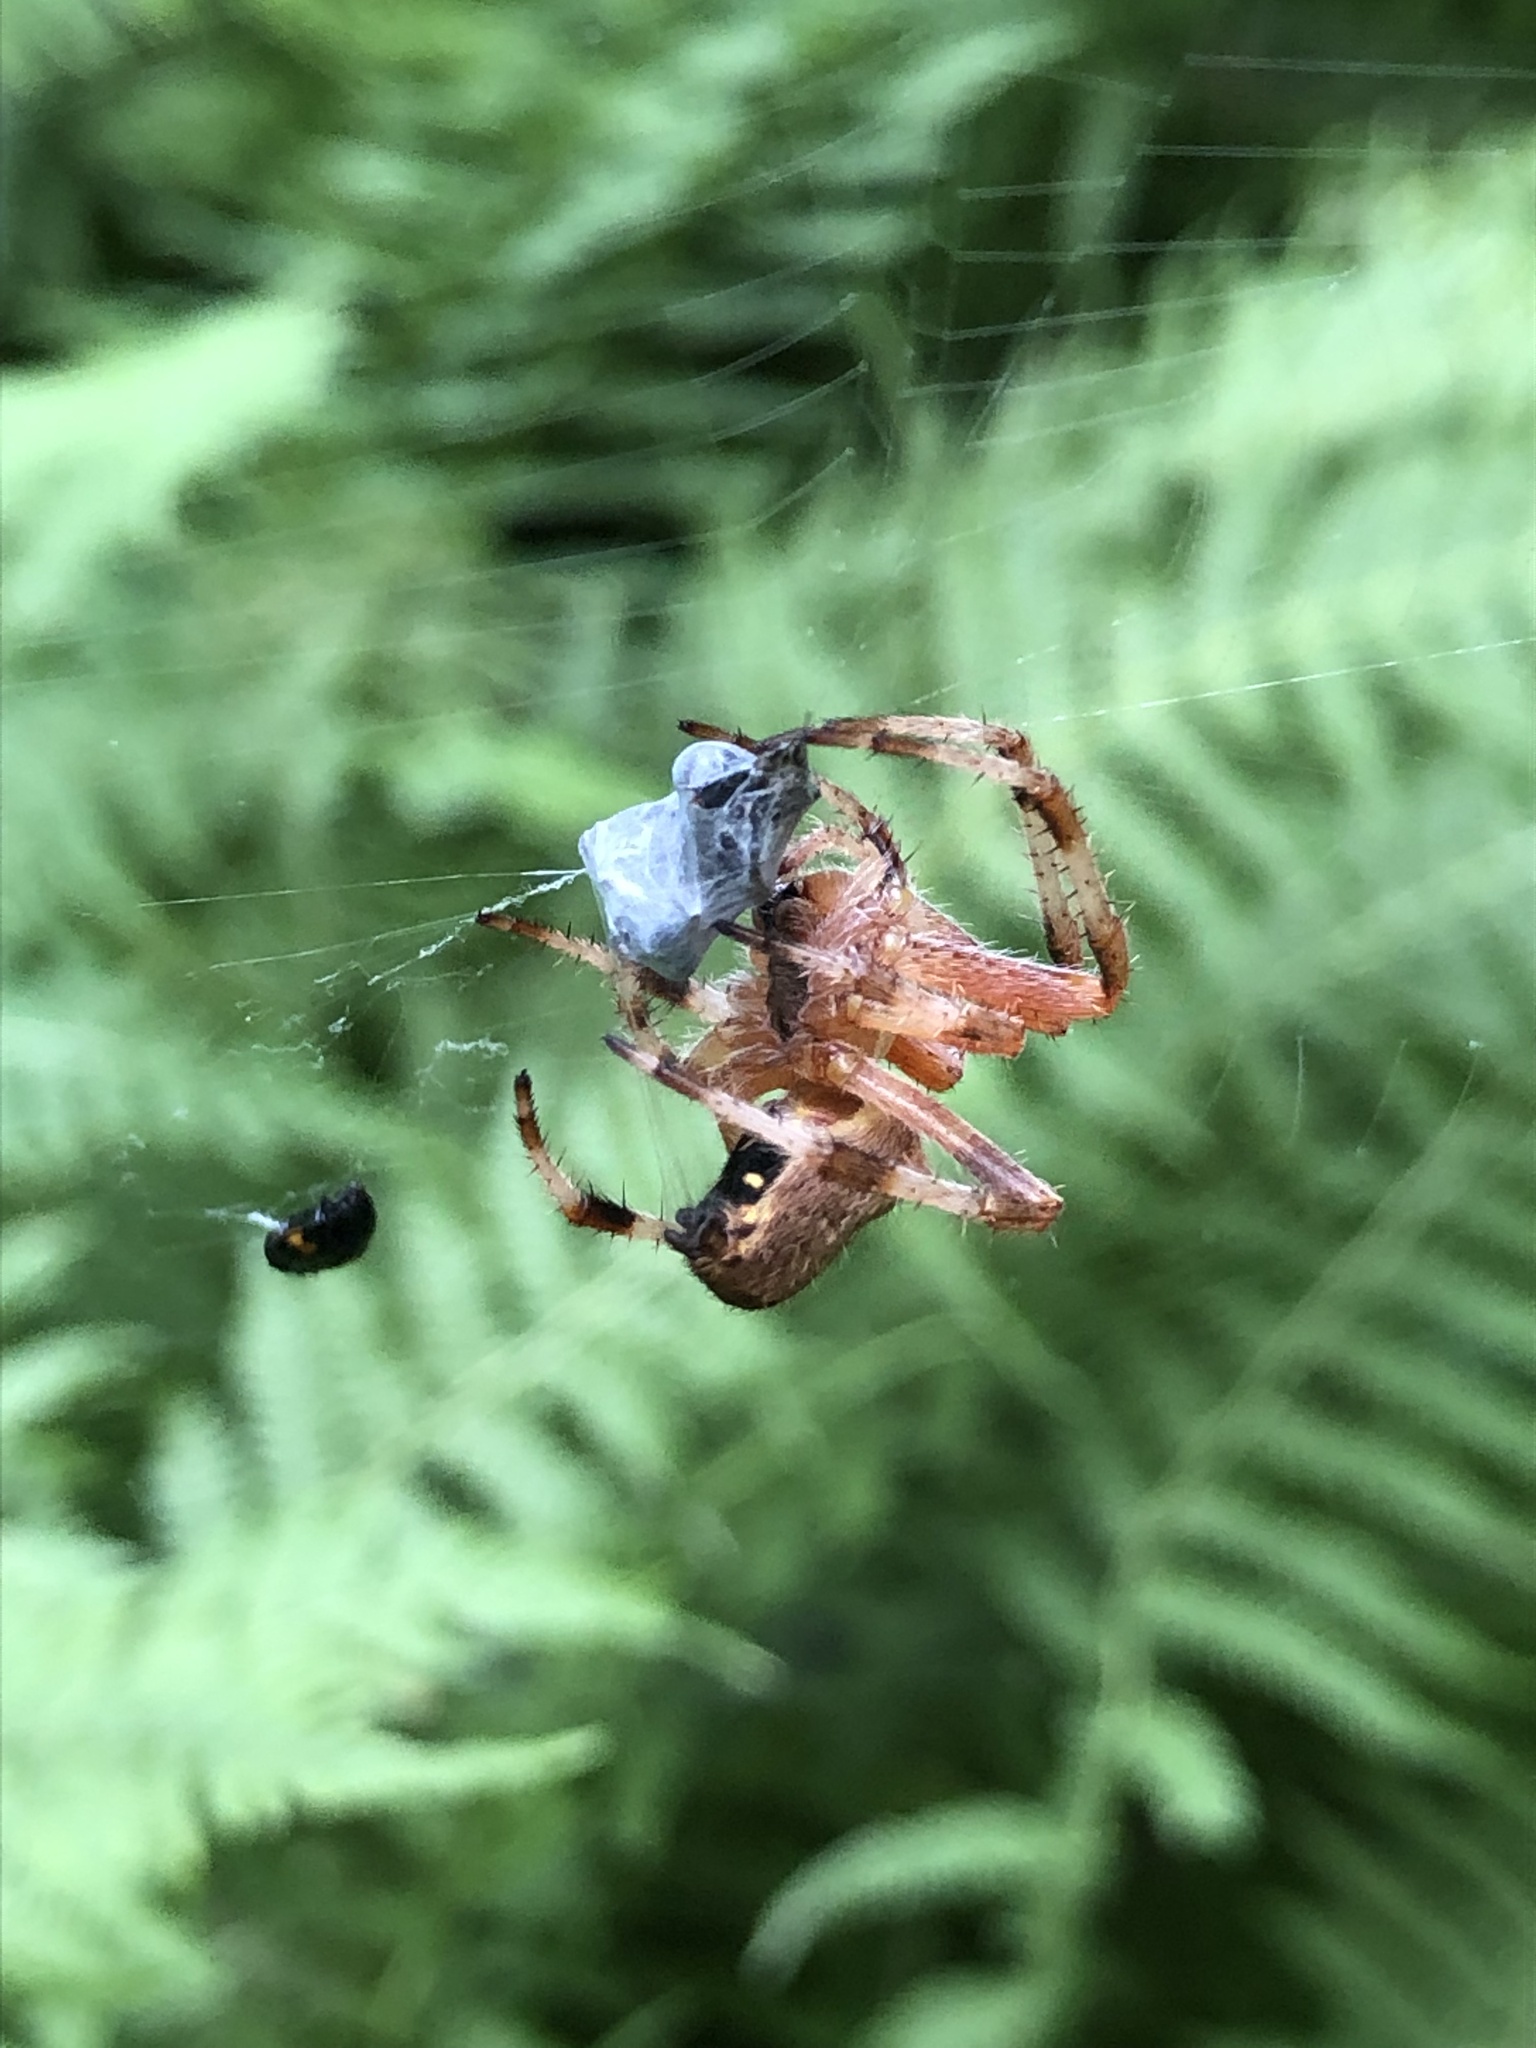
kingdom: Animalia
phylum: Arthropoda
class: Arachnida
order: Araneae
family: Araneidae
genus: Araneus
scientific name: Araneus nordmanni
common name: Nordmann's orbweaver
